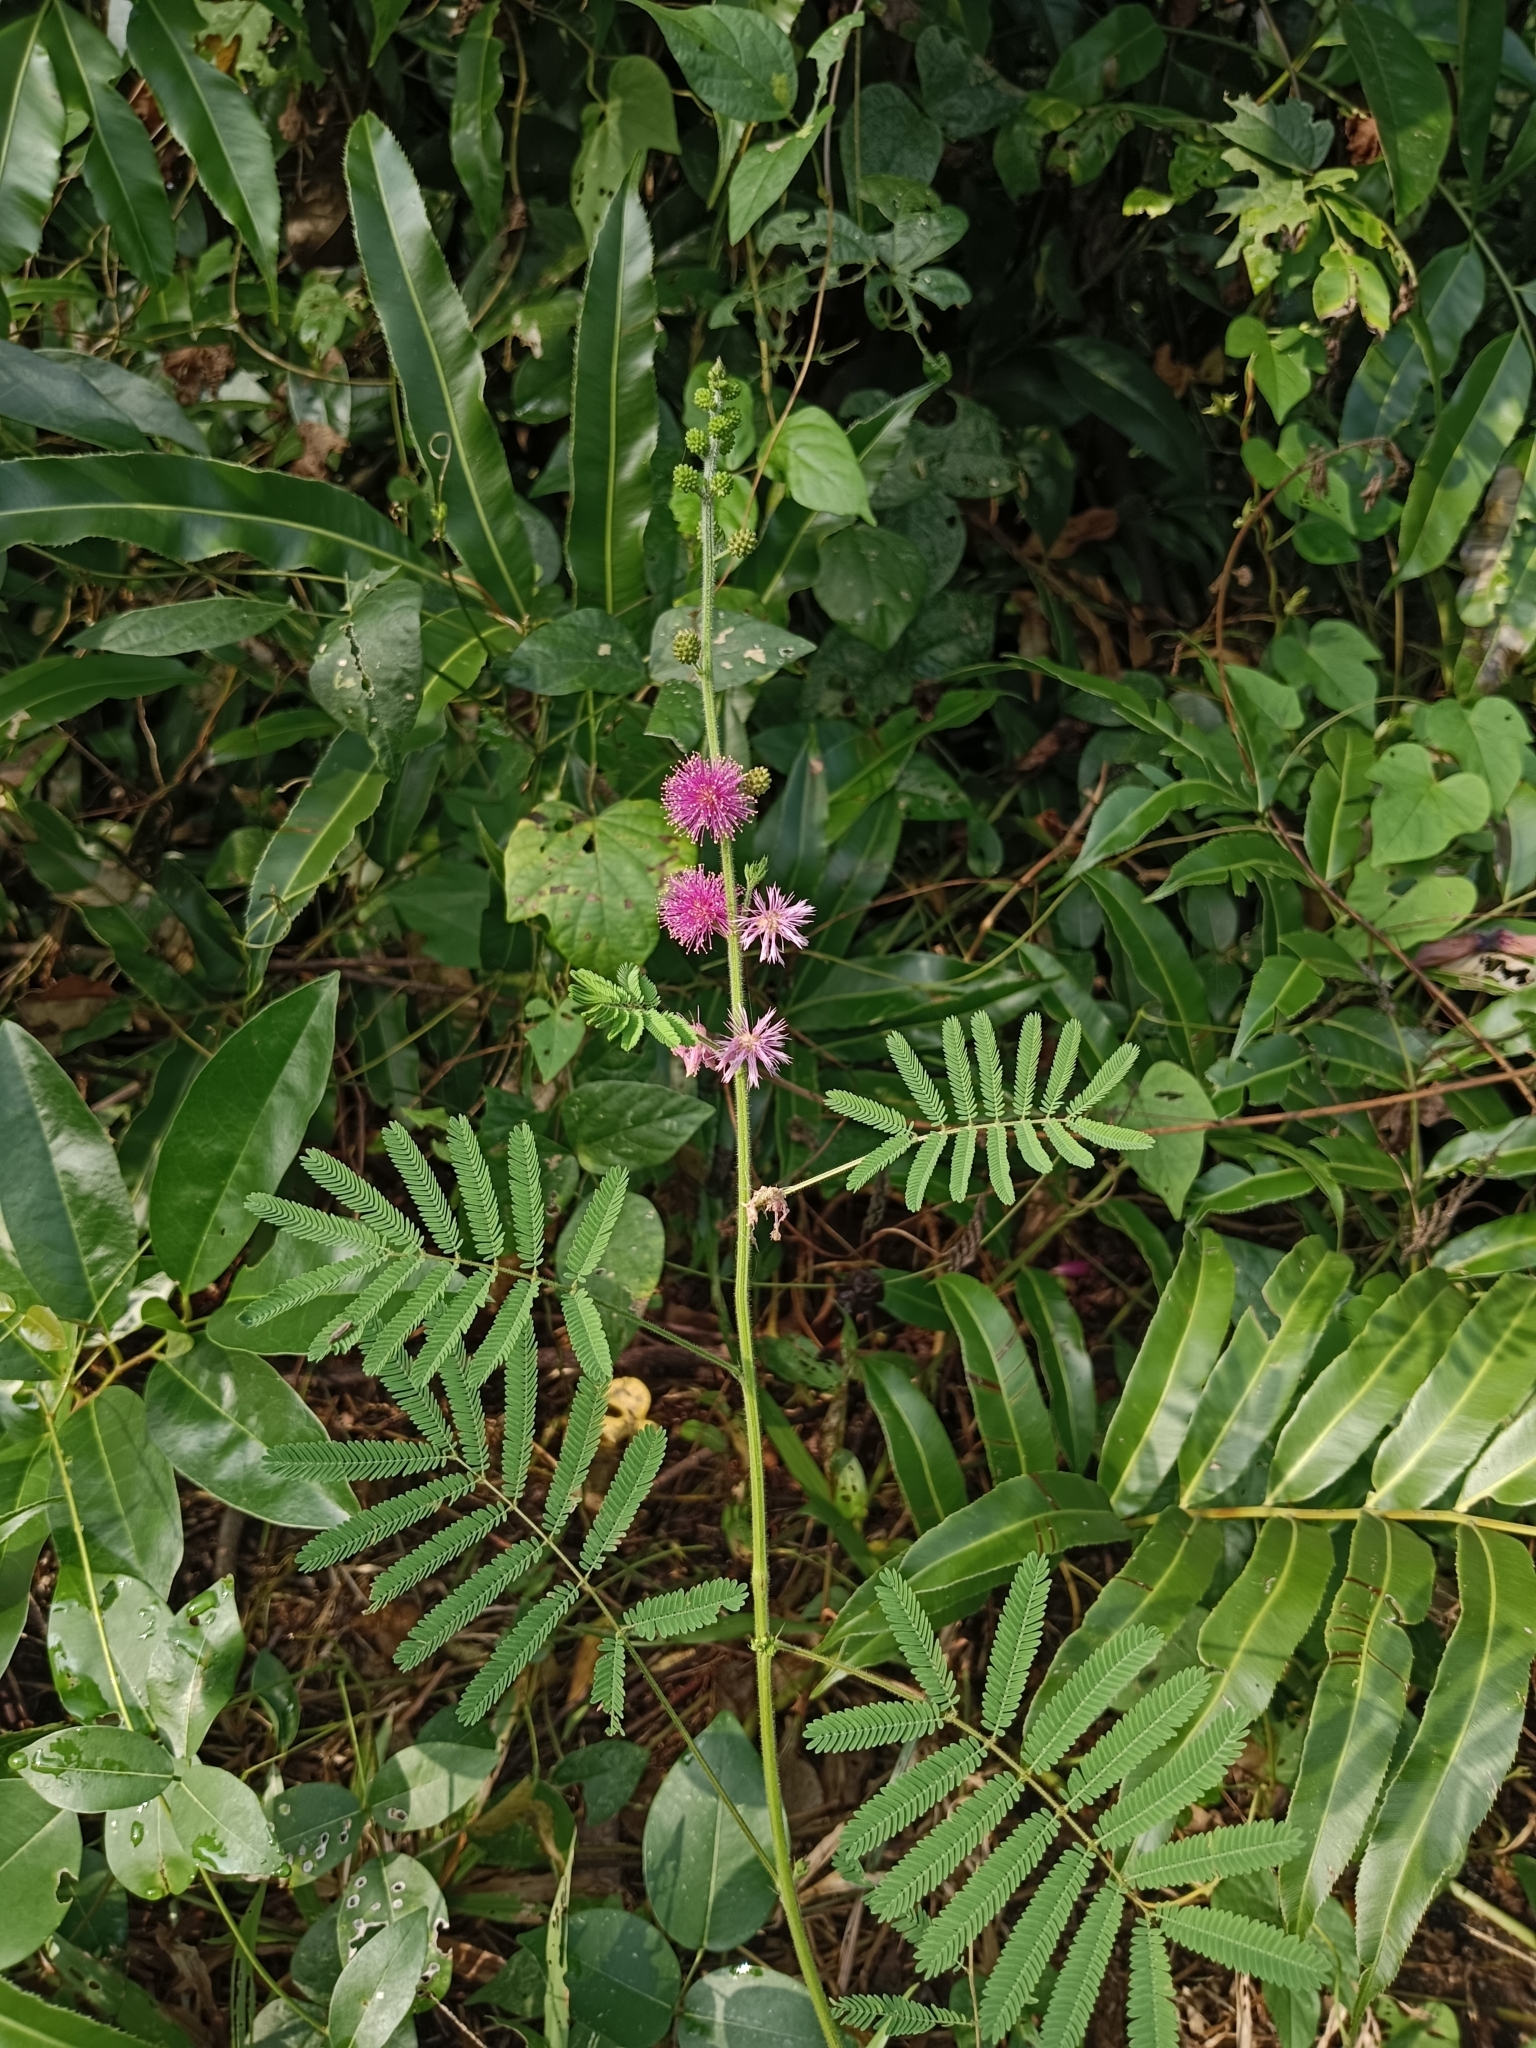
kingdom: Plantae
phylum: Tracheophyta
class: Magnoliopsida
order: Fabales
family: Fabaceae
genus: Mimosa
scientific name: Mimosa diplotricha
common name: Giant sensitive-plant
